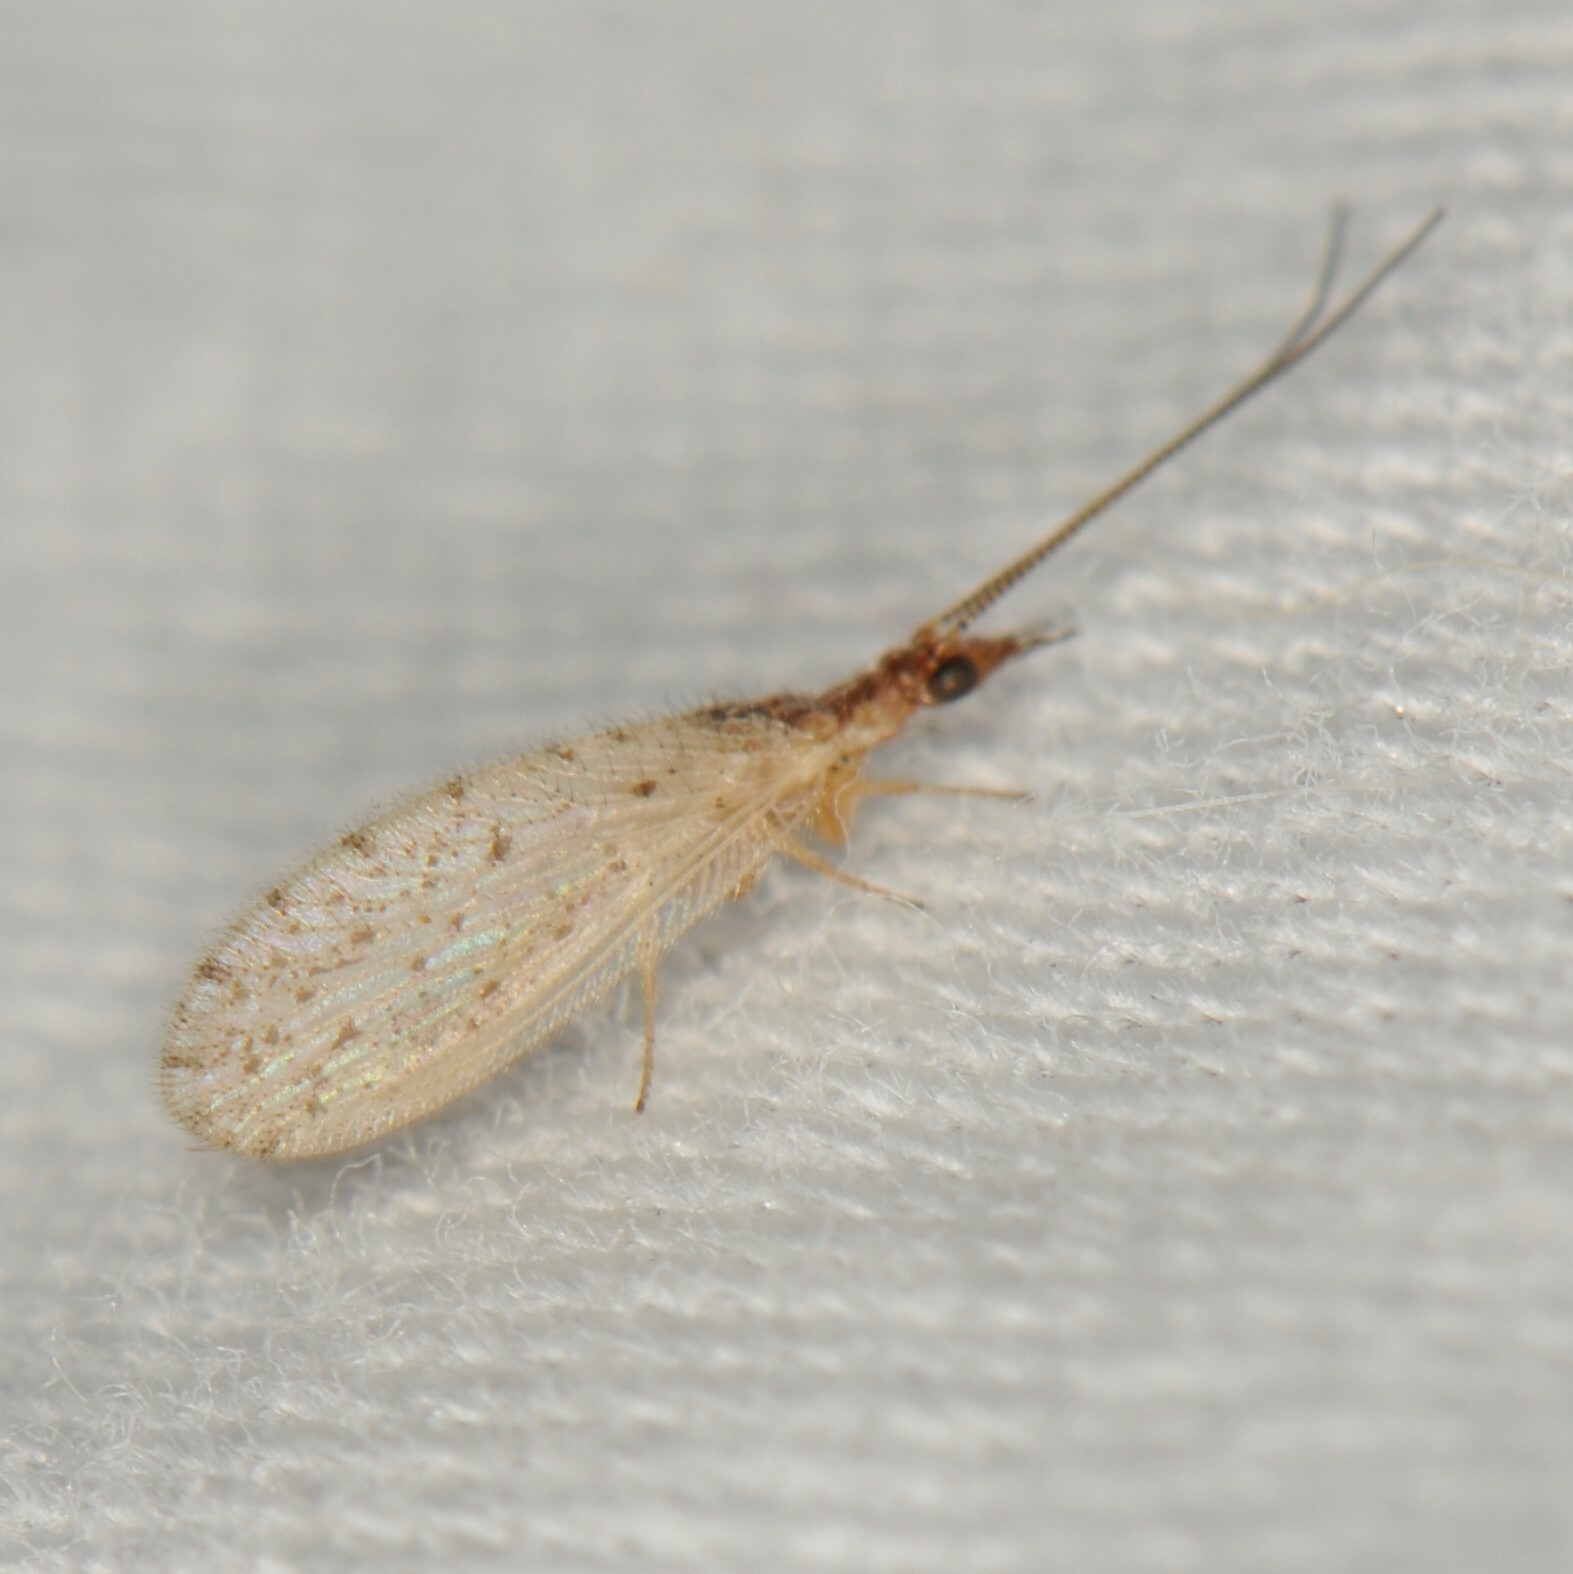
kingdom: Animalia
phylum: Arthropoda
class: Insecta
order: Neuroptera
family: Hemerobiidae
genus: Sympherobius
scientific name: Sympherobius
